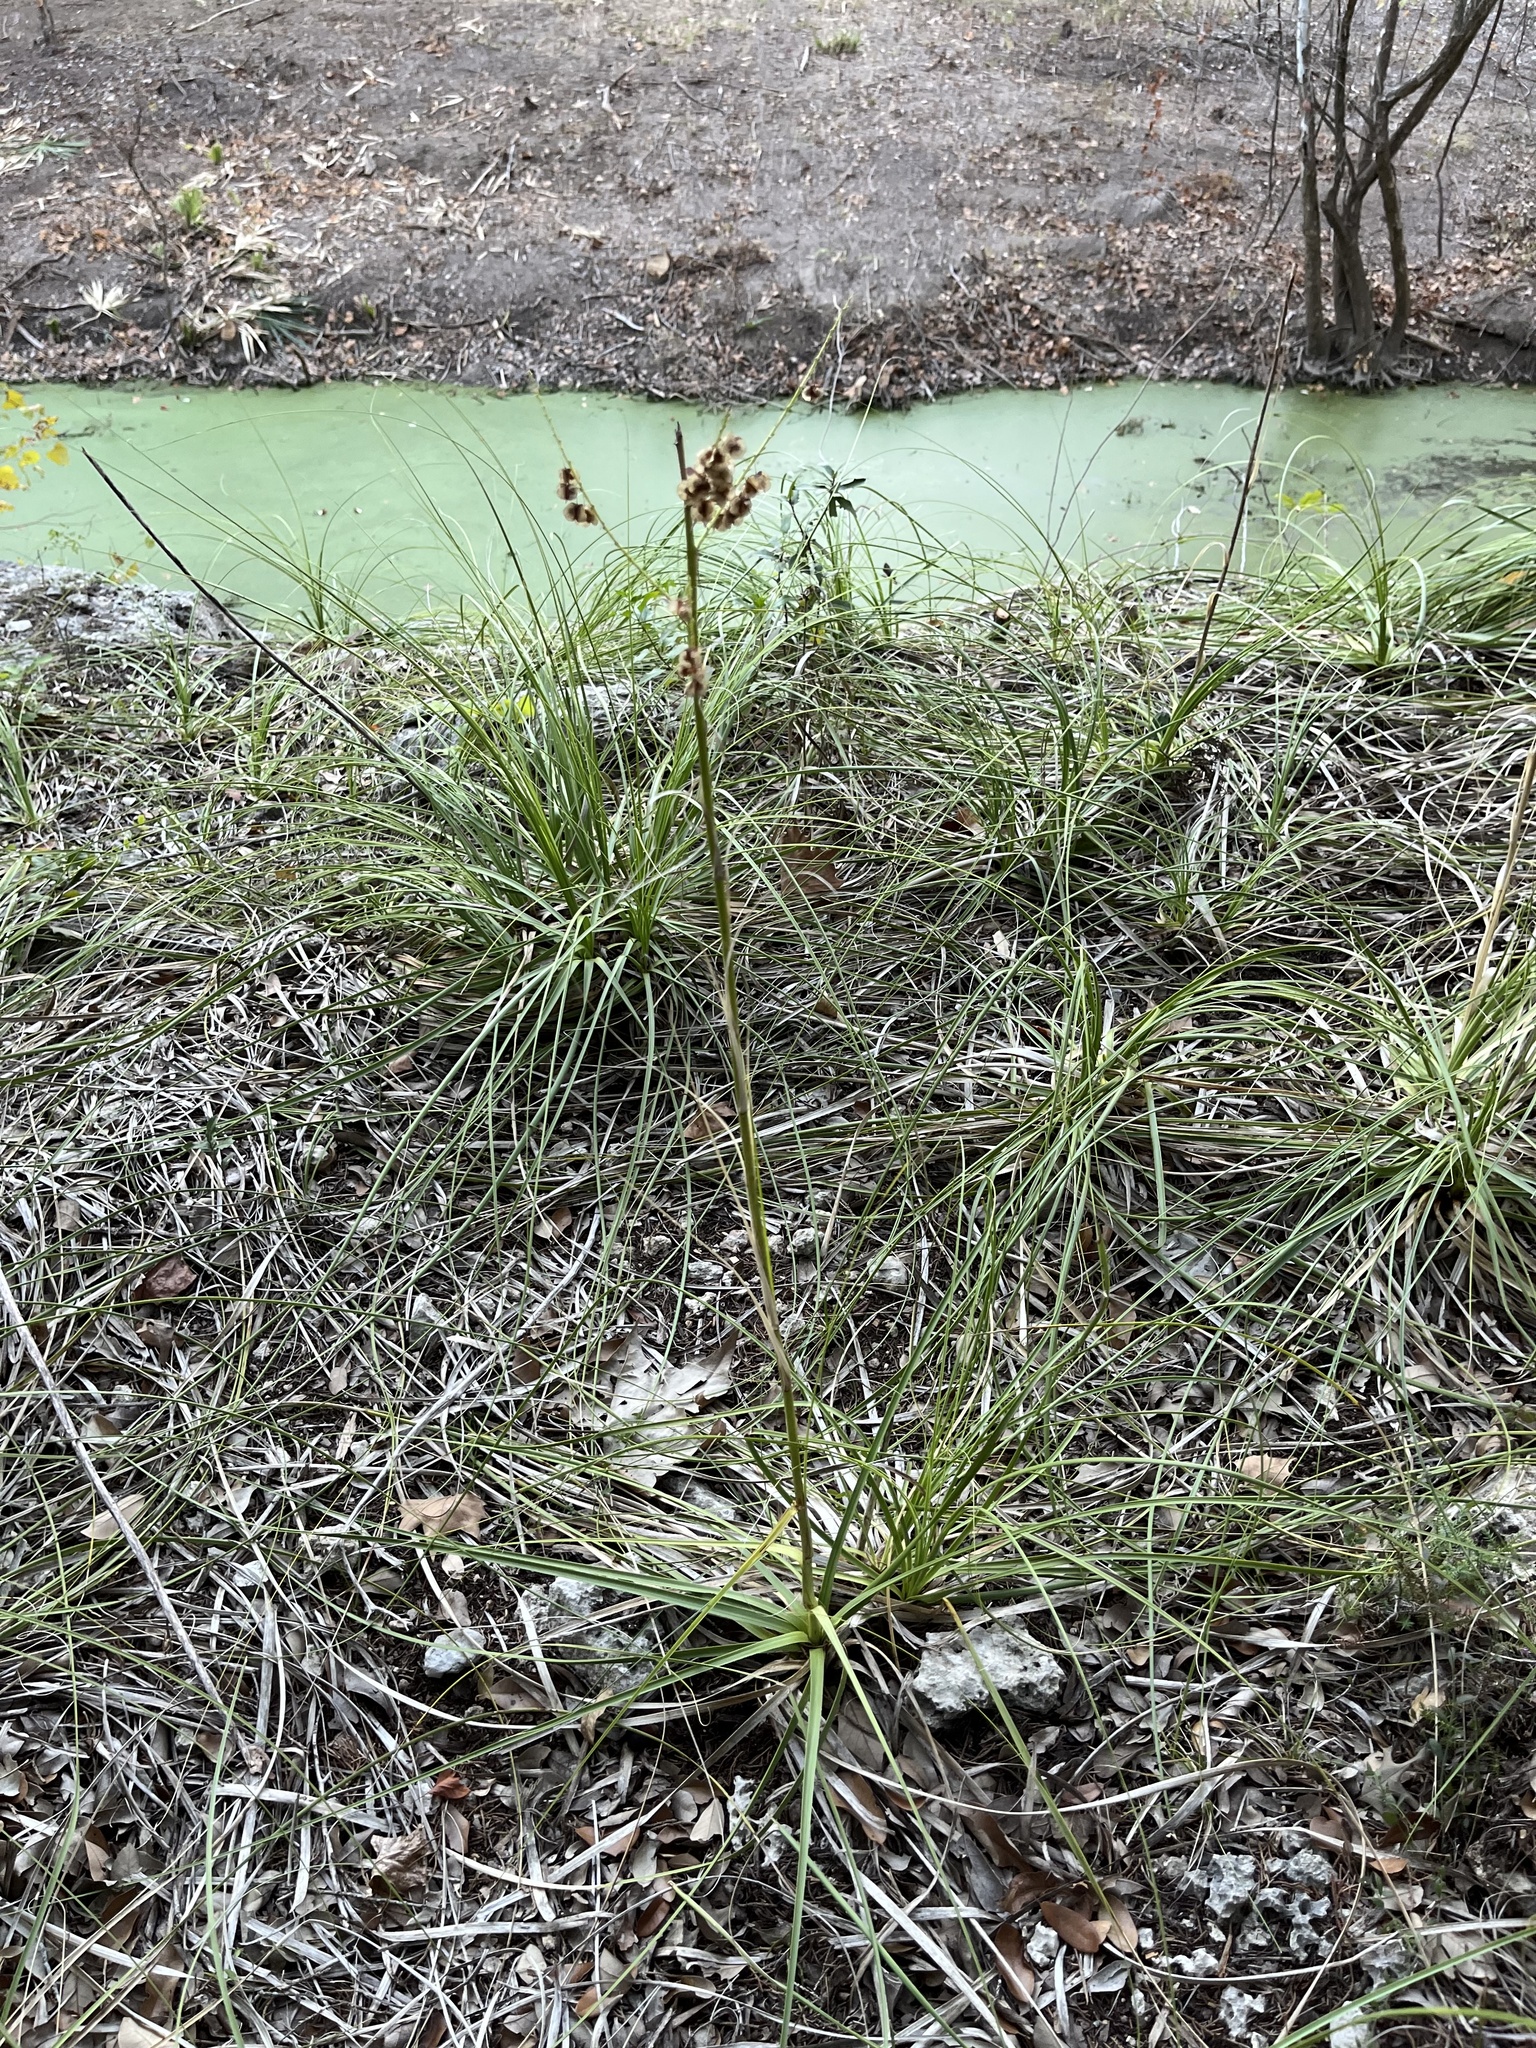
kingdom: Plantae
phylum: Tracheophyta
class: Liliopsida
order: Asparagales
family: Asparagaceae
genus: Nolina
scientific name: Nolina lindheimeriana
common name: Lindheimer's bear-grass
